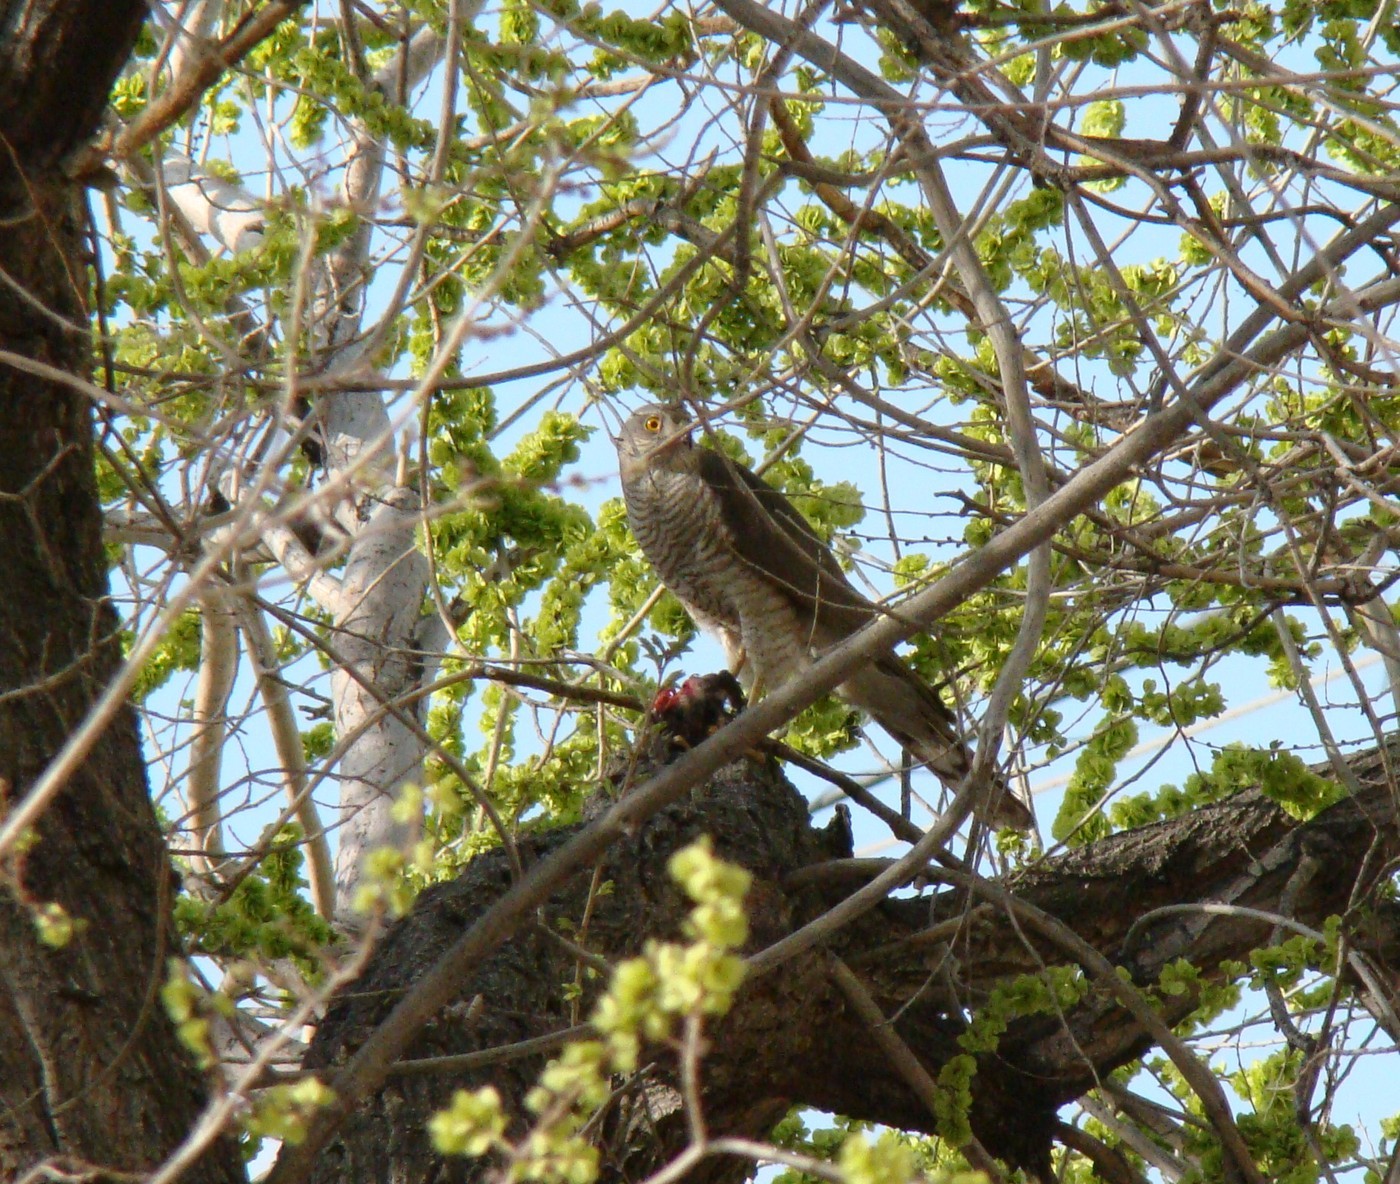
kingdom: Animalia
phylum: Chordata
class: Aves
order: Accipitriformes
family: Accipitridae
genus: Accipiter
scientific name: Accipiter nisus
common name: Eurasian sparrowhawk
